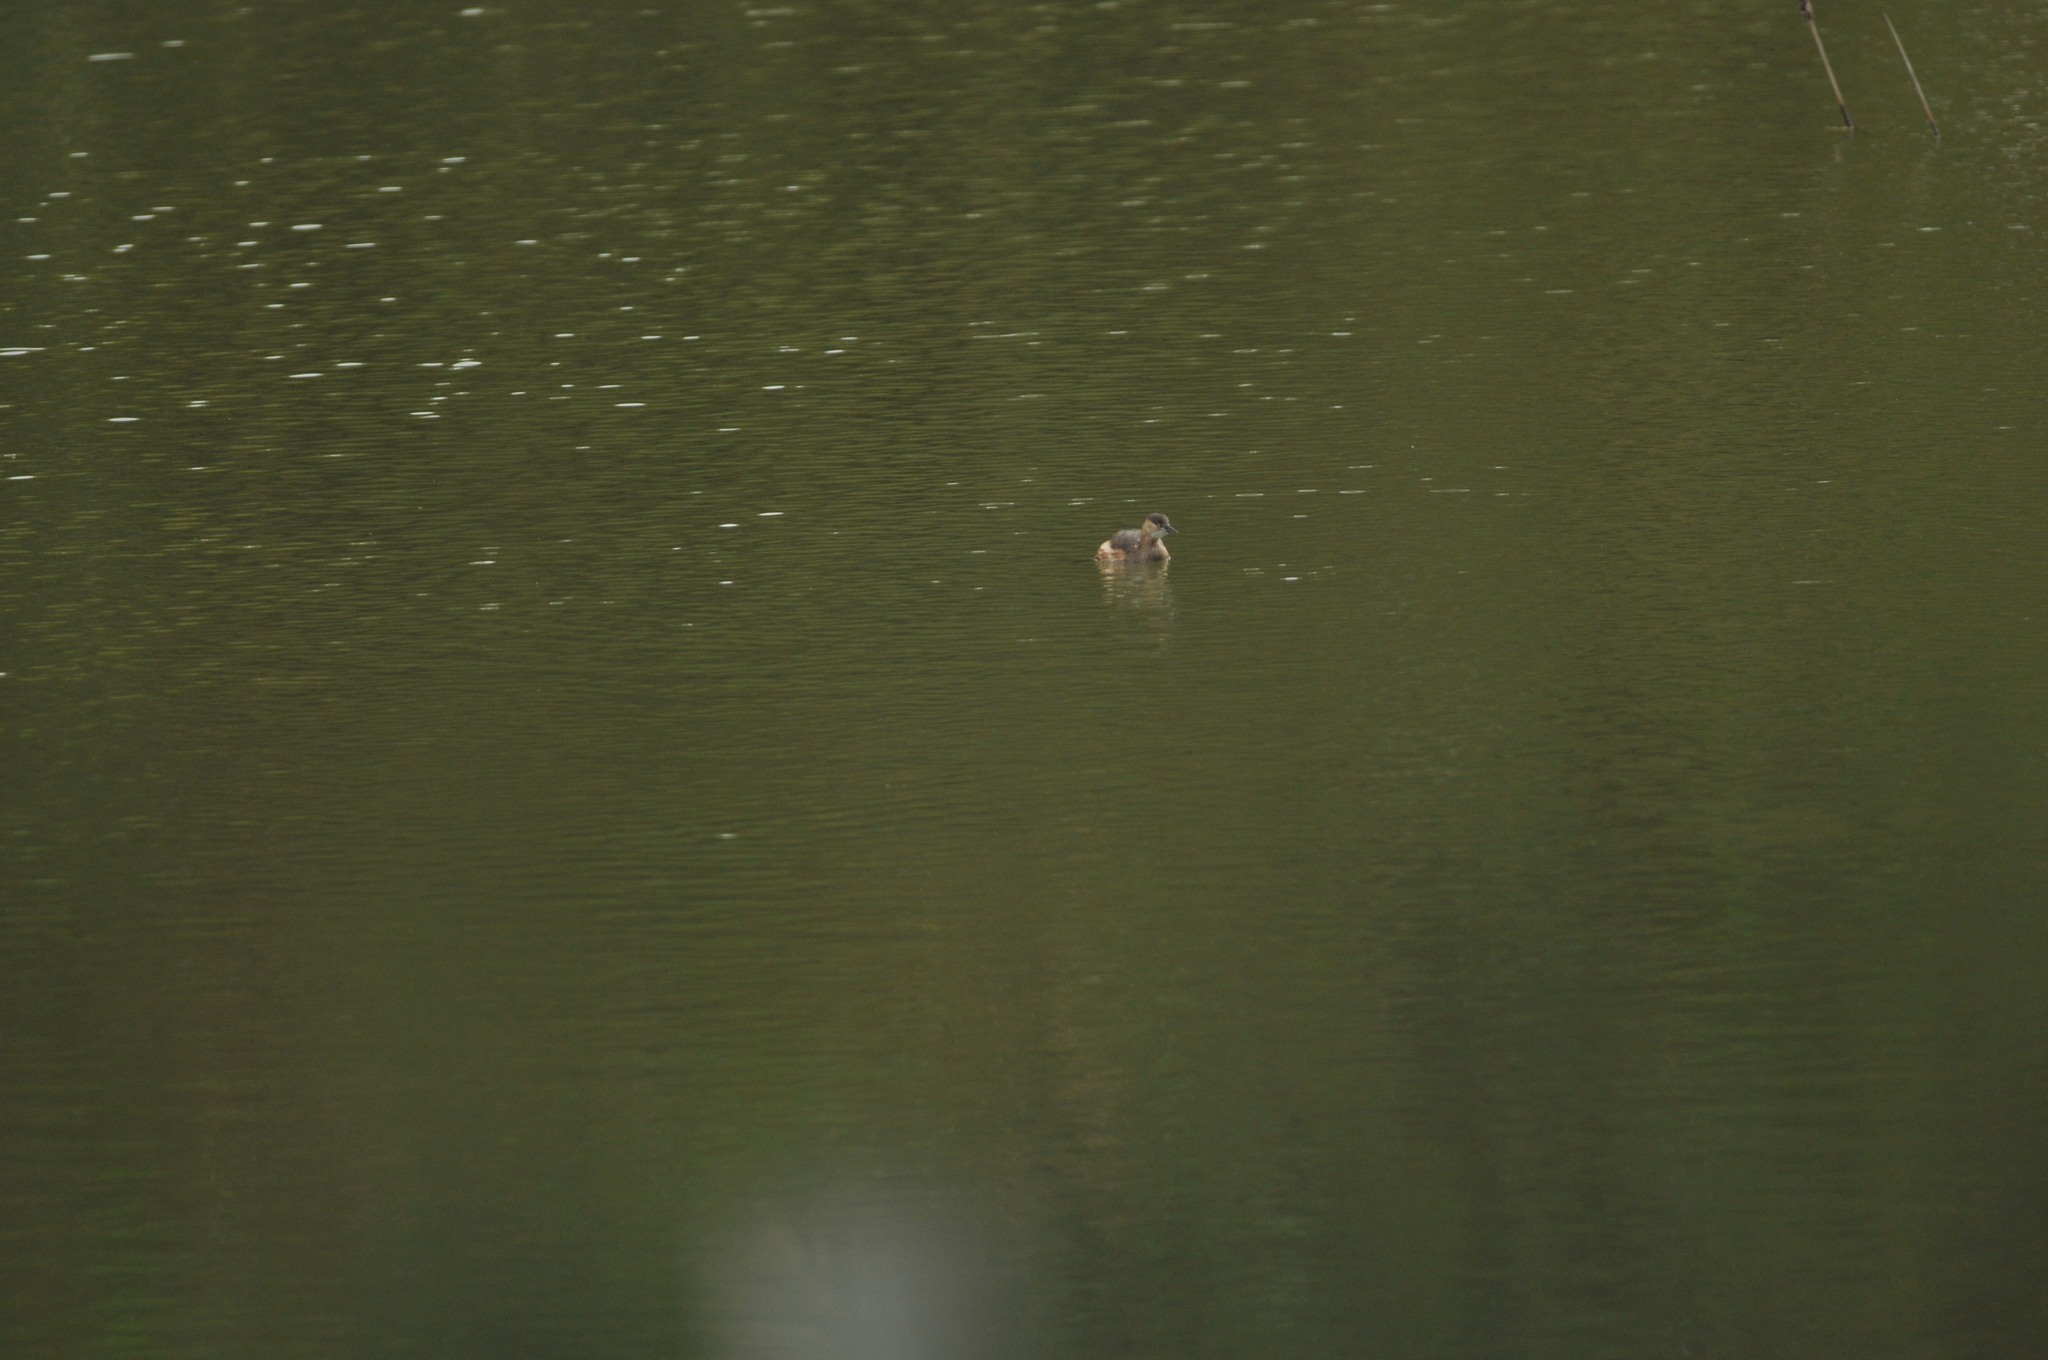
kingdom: Animalia
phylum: Chordata
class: Aves
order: Podicipediformes
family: Podicipedidae
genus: Tachybaptus
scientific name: Tachybaptus ruficollis
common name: Little grebe
